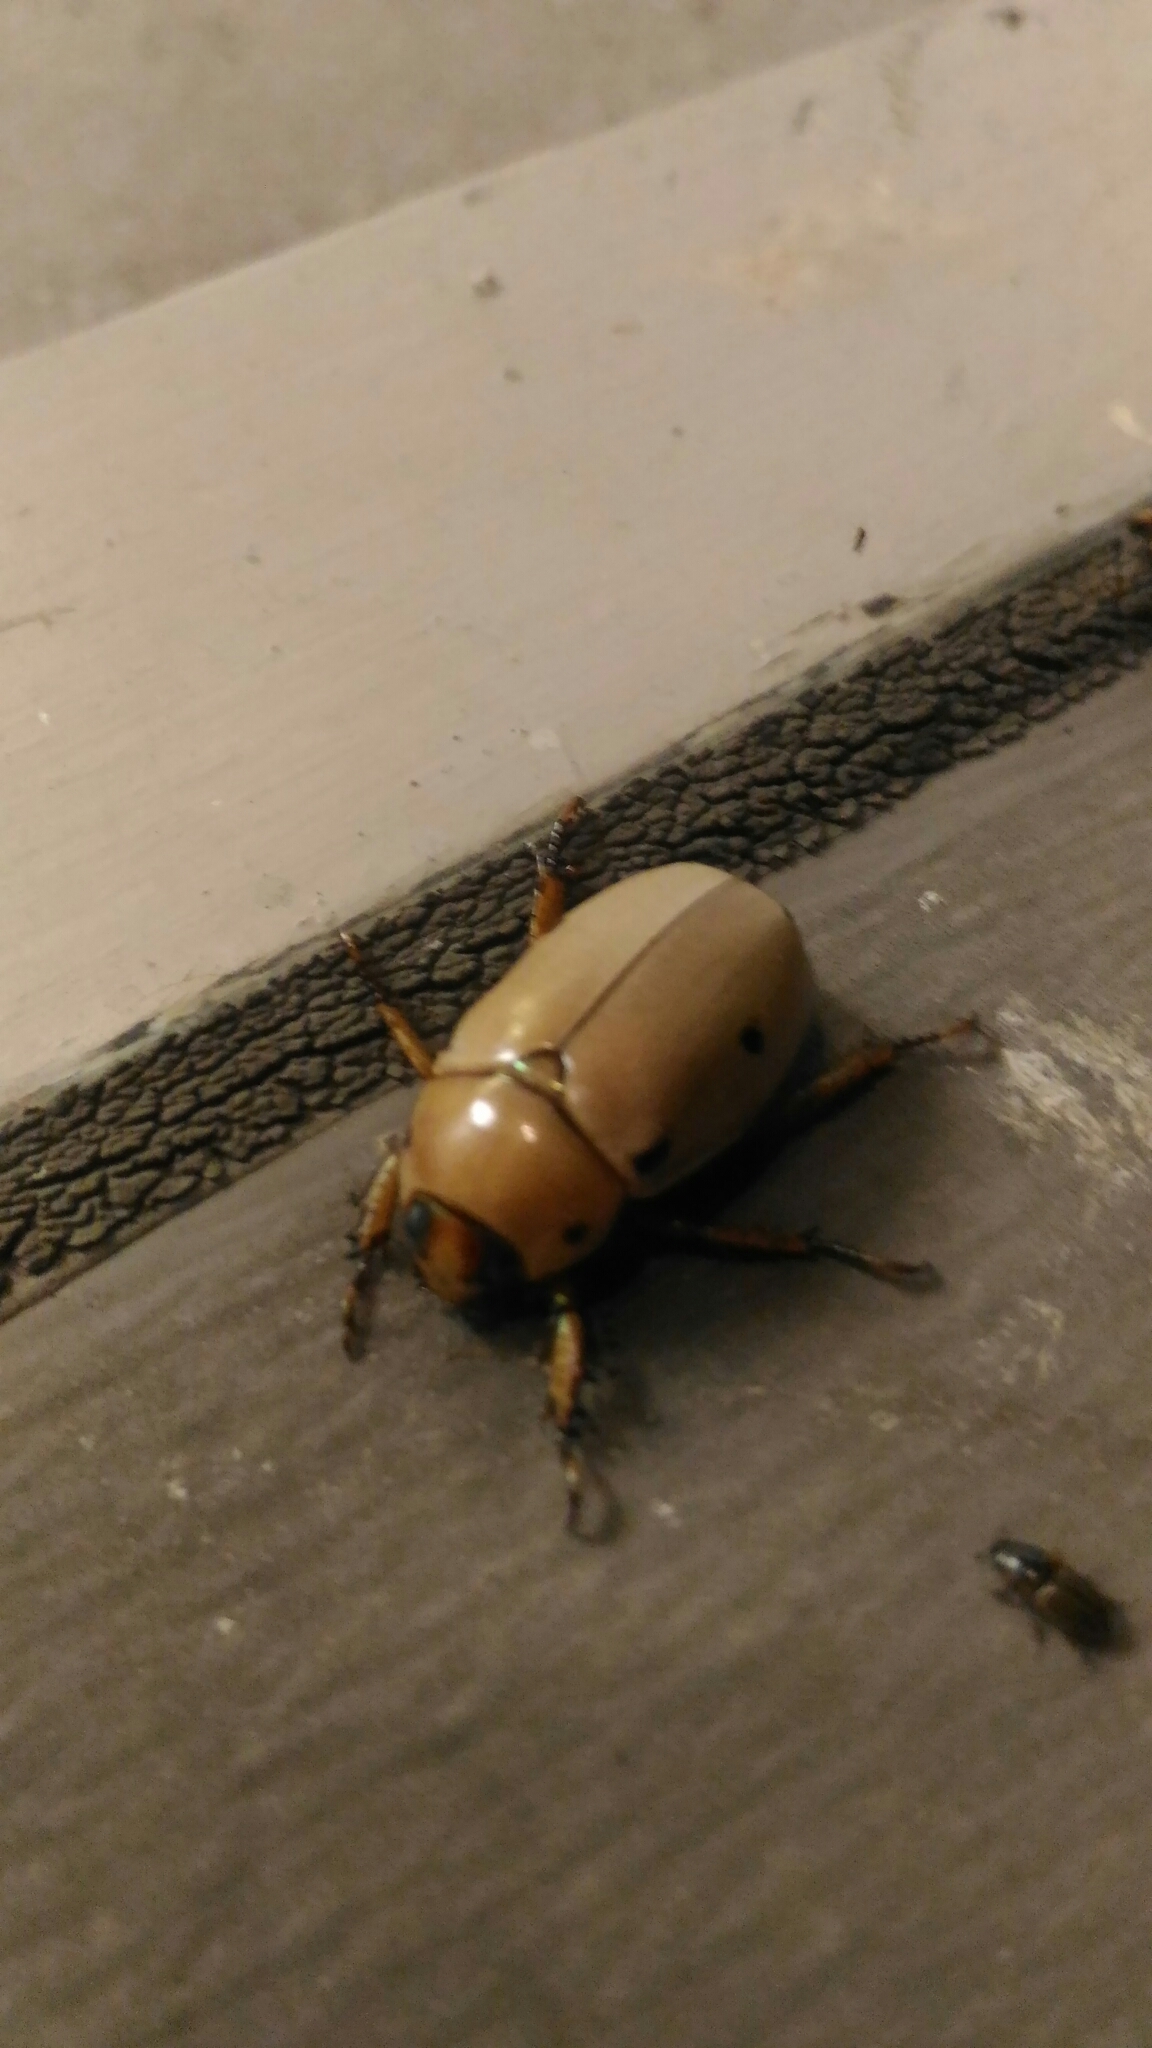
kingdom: Animalia
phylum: Arthropoda
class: Insecta
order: Coleoptera
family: Scarabaeidae
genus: Pelidnota
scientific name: Pelidnota punctata
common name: Grapevine beetle
